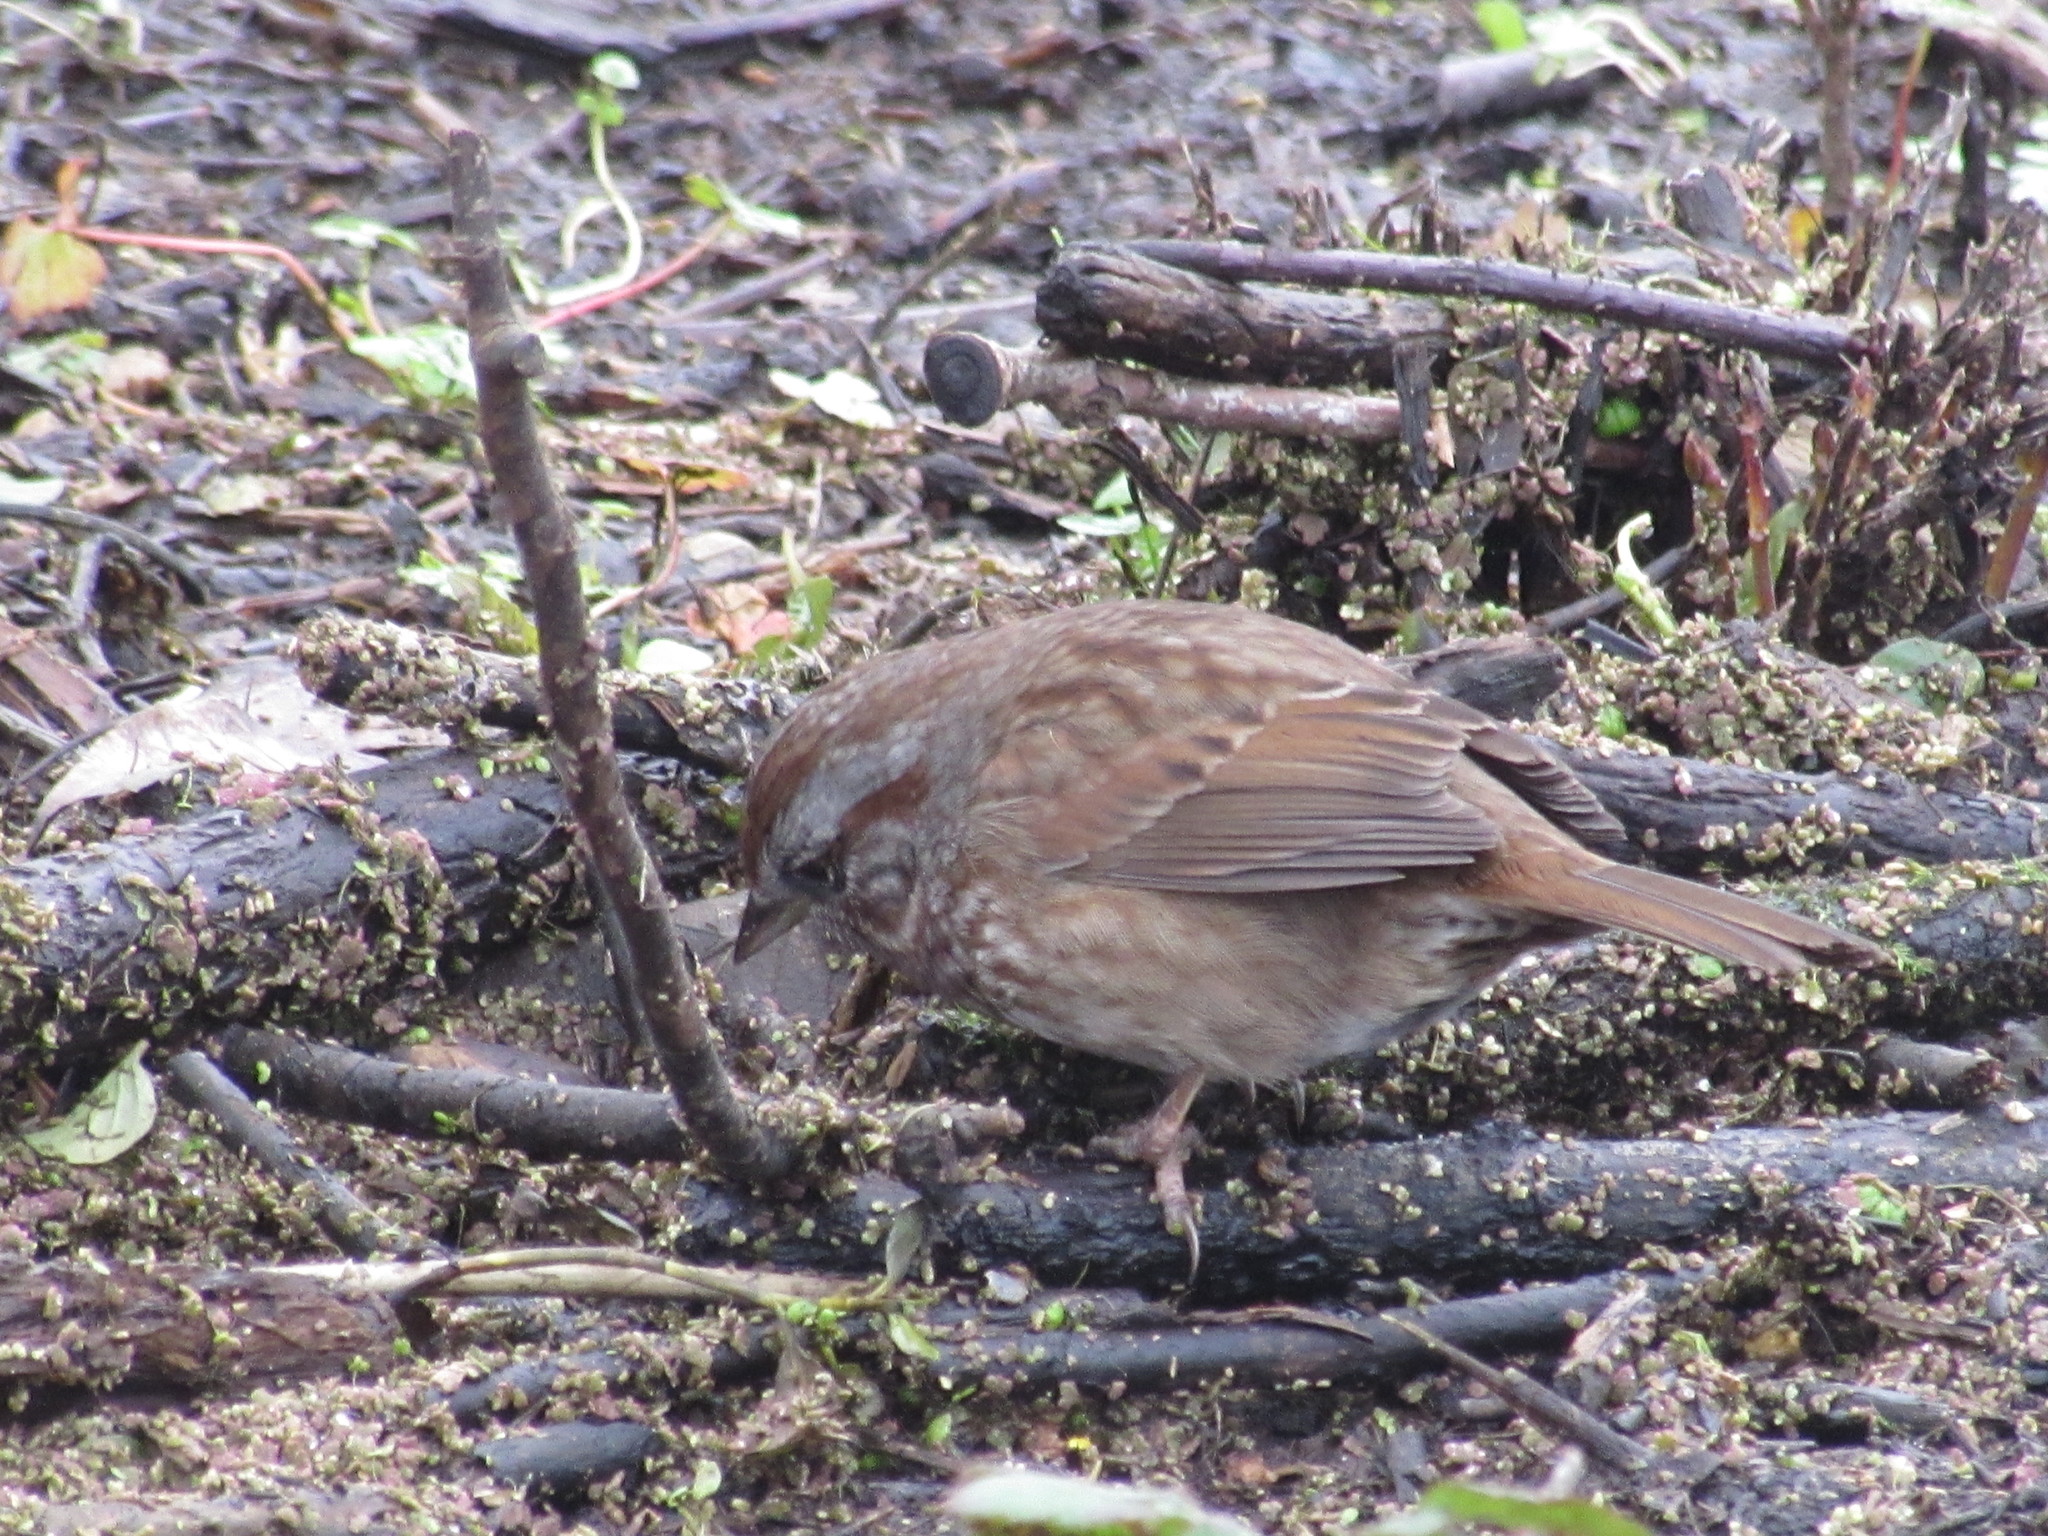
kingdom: Animalia
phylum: Chordata
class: Aves
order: Passeriformes
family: Passerellidae
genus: Melospiza
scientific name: Melospiza melodia
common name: Song sparrow
